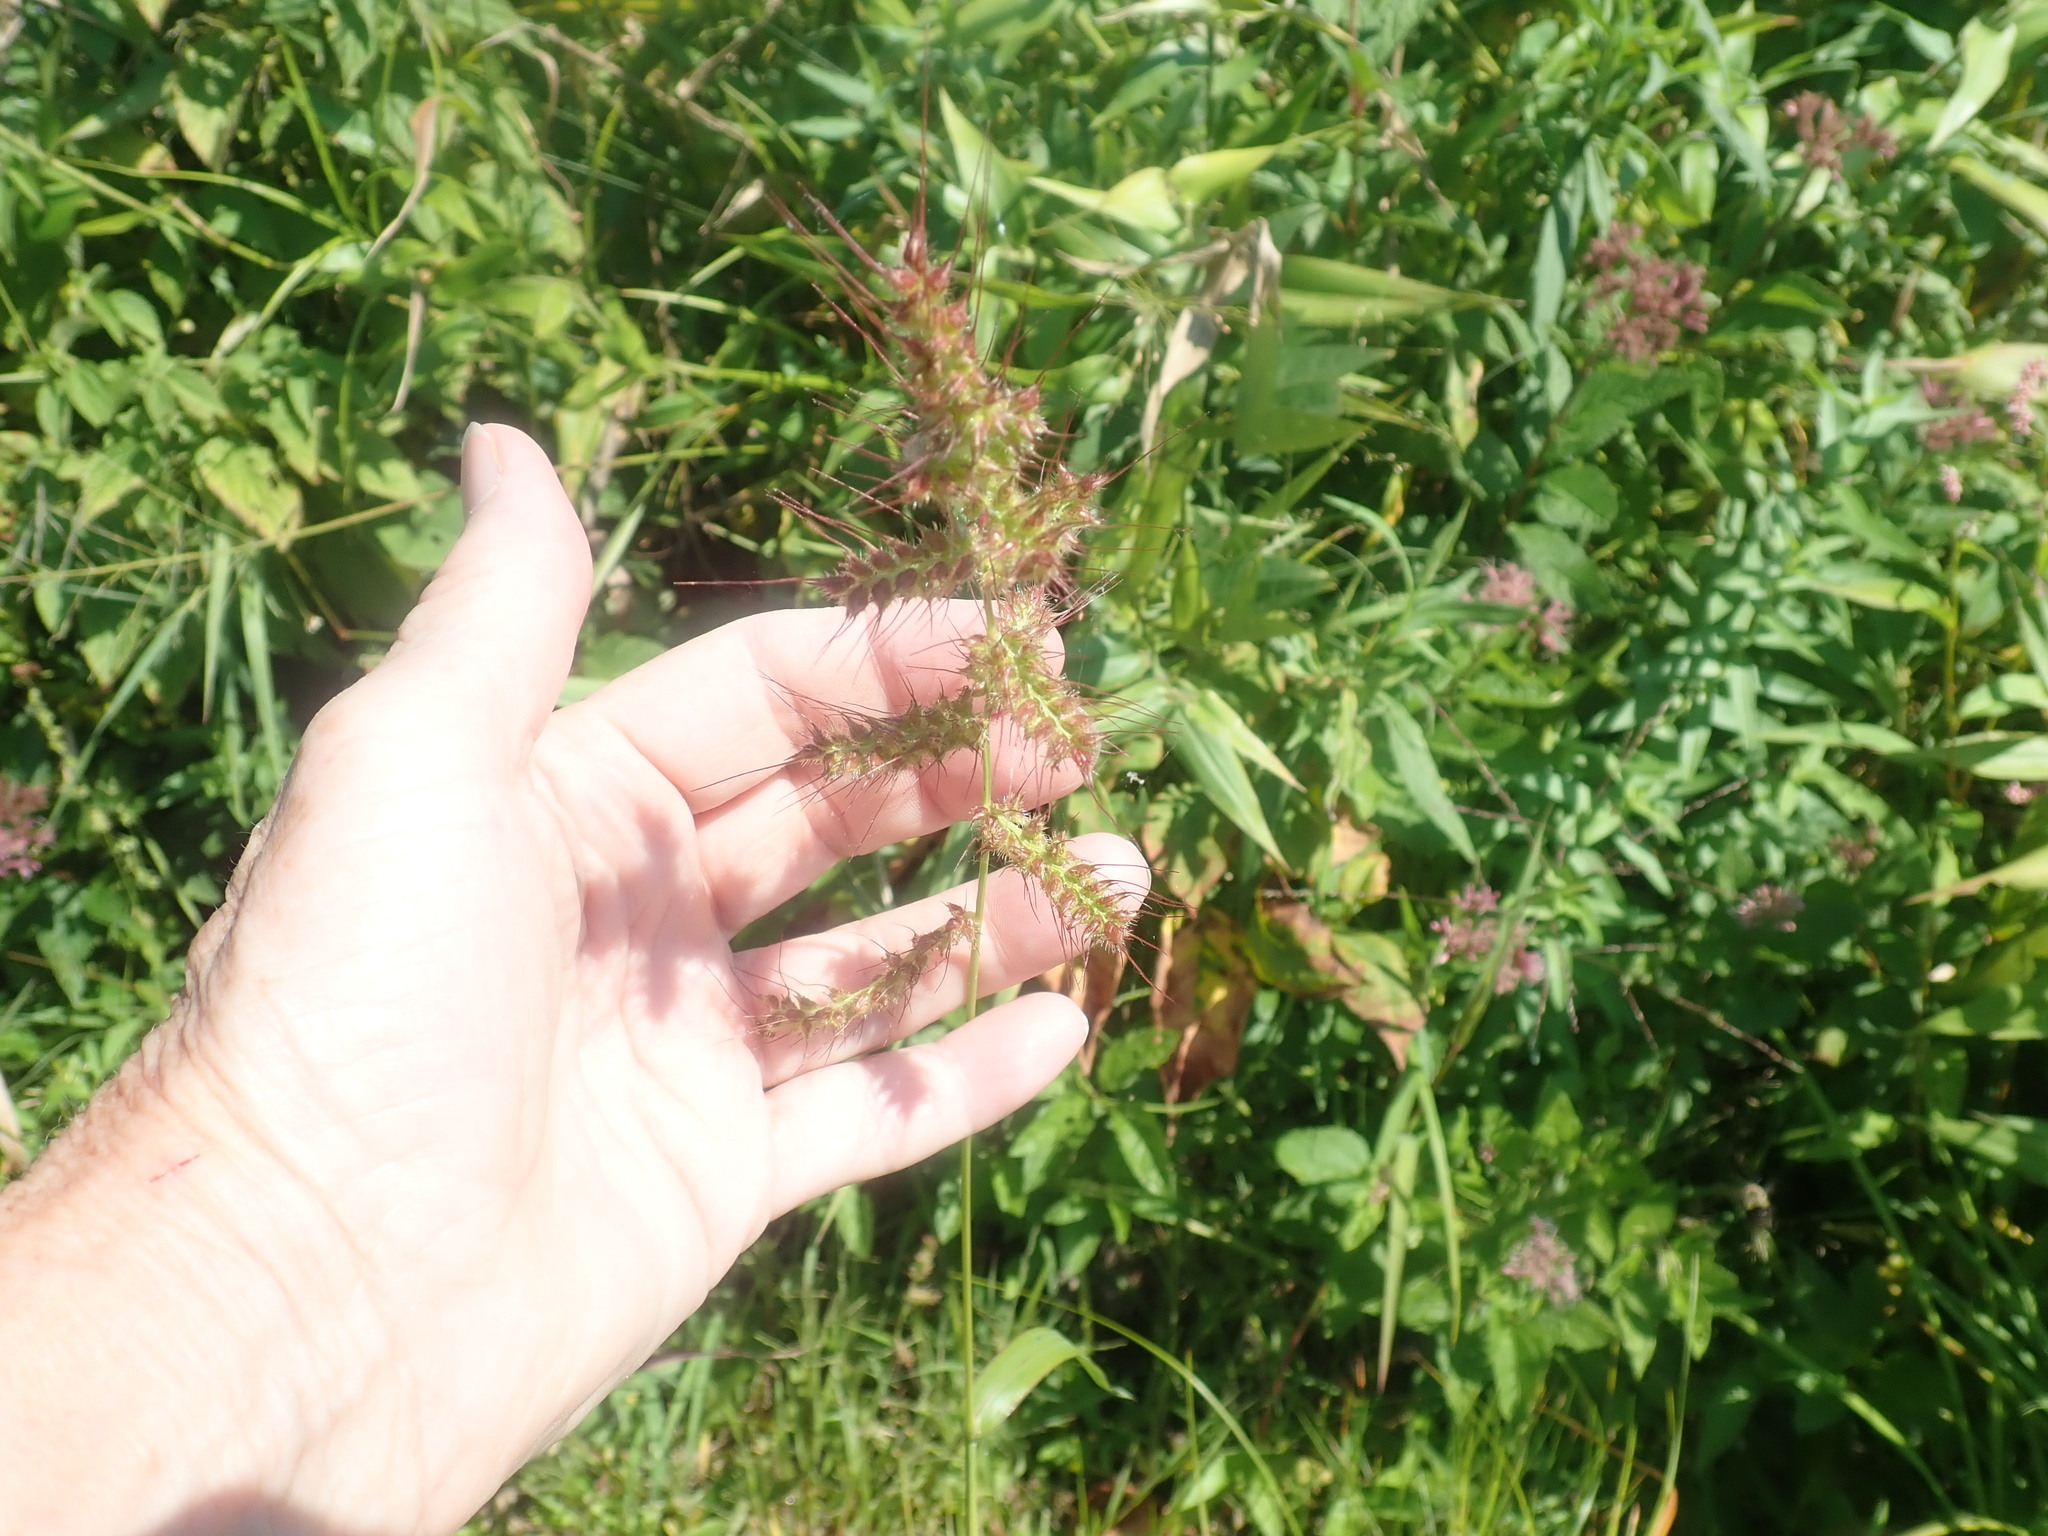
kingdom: Plantae
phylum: Tracheophyta
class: Liliopsida
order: Poales
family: Poaceae
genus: Echinochloa
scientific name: Echinochloa crus-galli
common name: Cockspur
